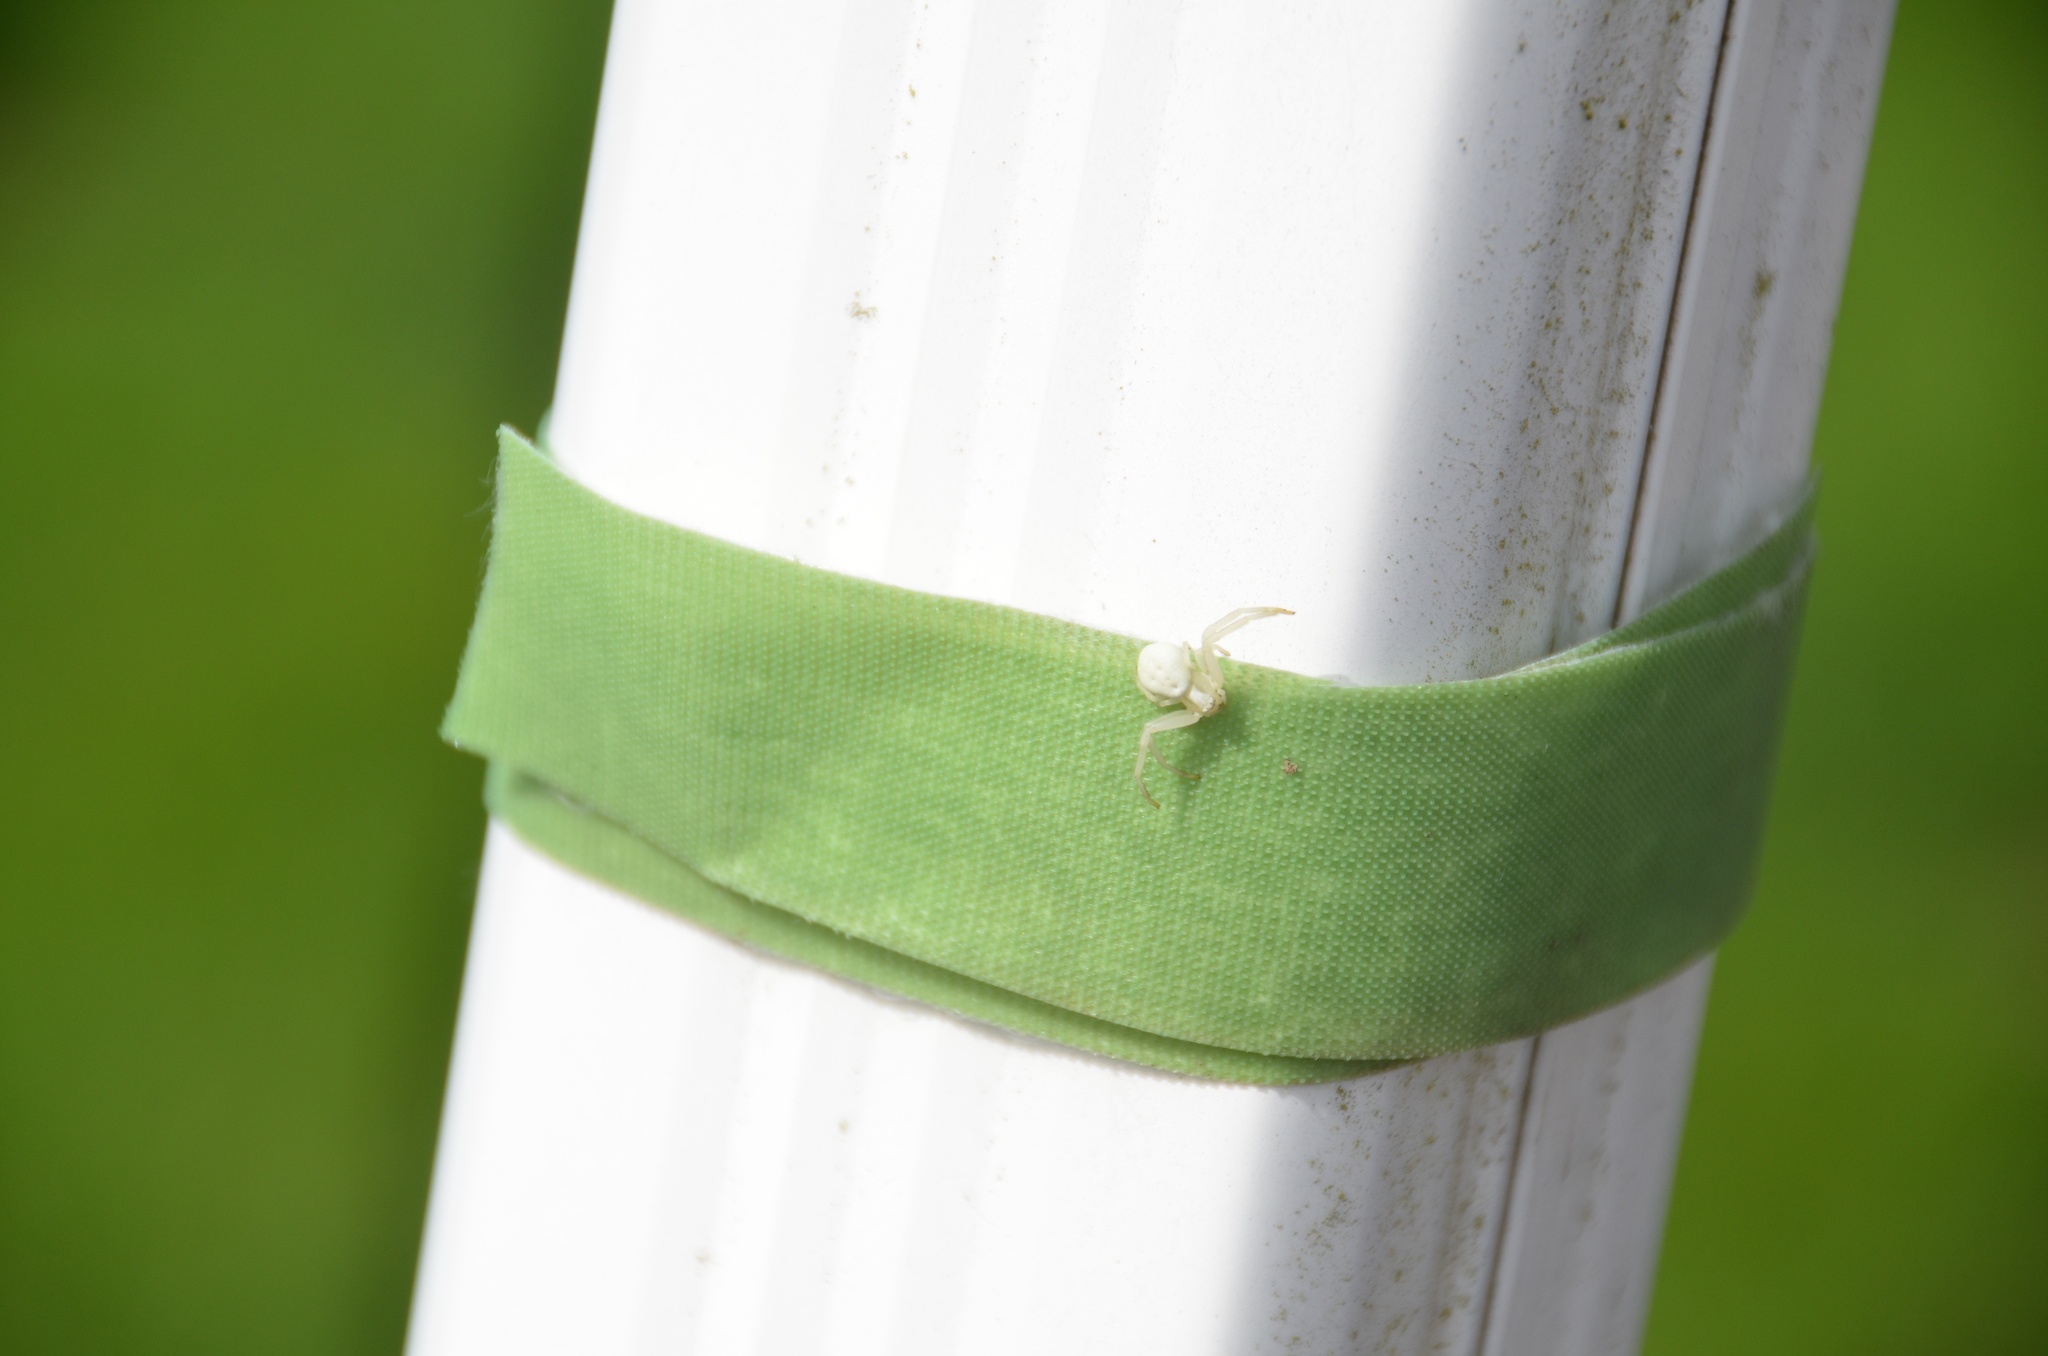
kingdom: Animalia
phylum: Arthropoda
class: Arachnida
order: Araneae
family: Thomisidae
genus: Misumena
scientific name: Misumena vatia
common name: Goldenrod crab spider
